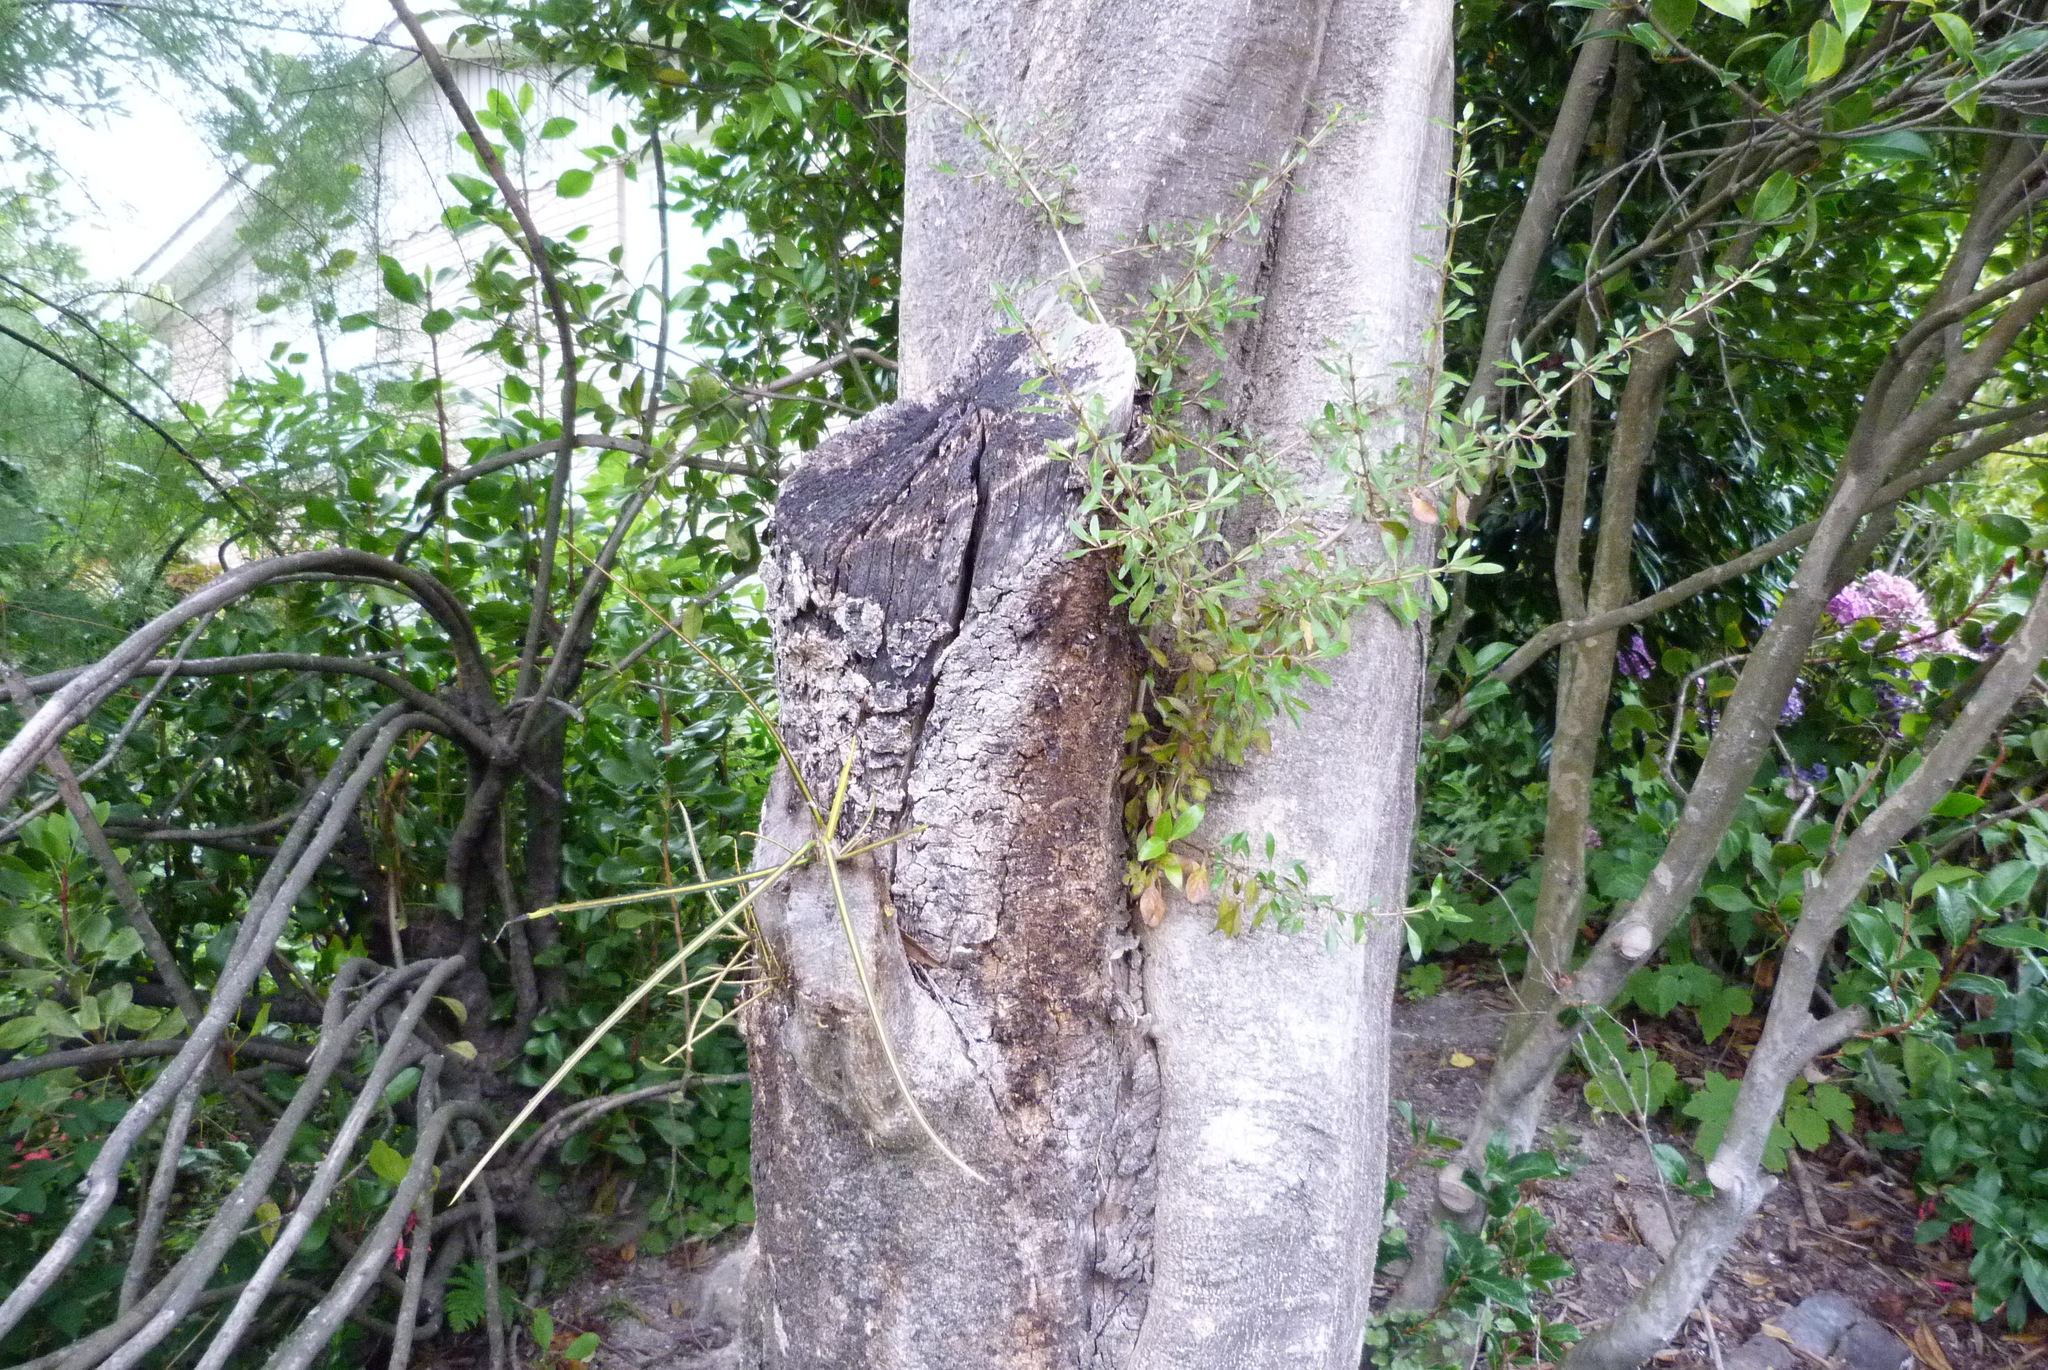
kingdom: Plantae
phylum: Tracheophyta
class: Magnoliopsida
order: Gentianales
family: Rubiaceae
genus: Coprosma
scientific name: Coprosma propinqua
